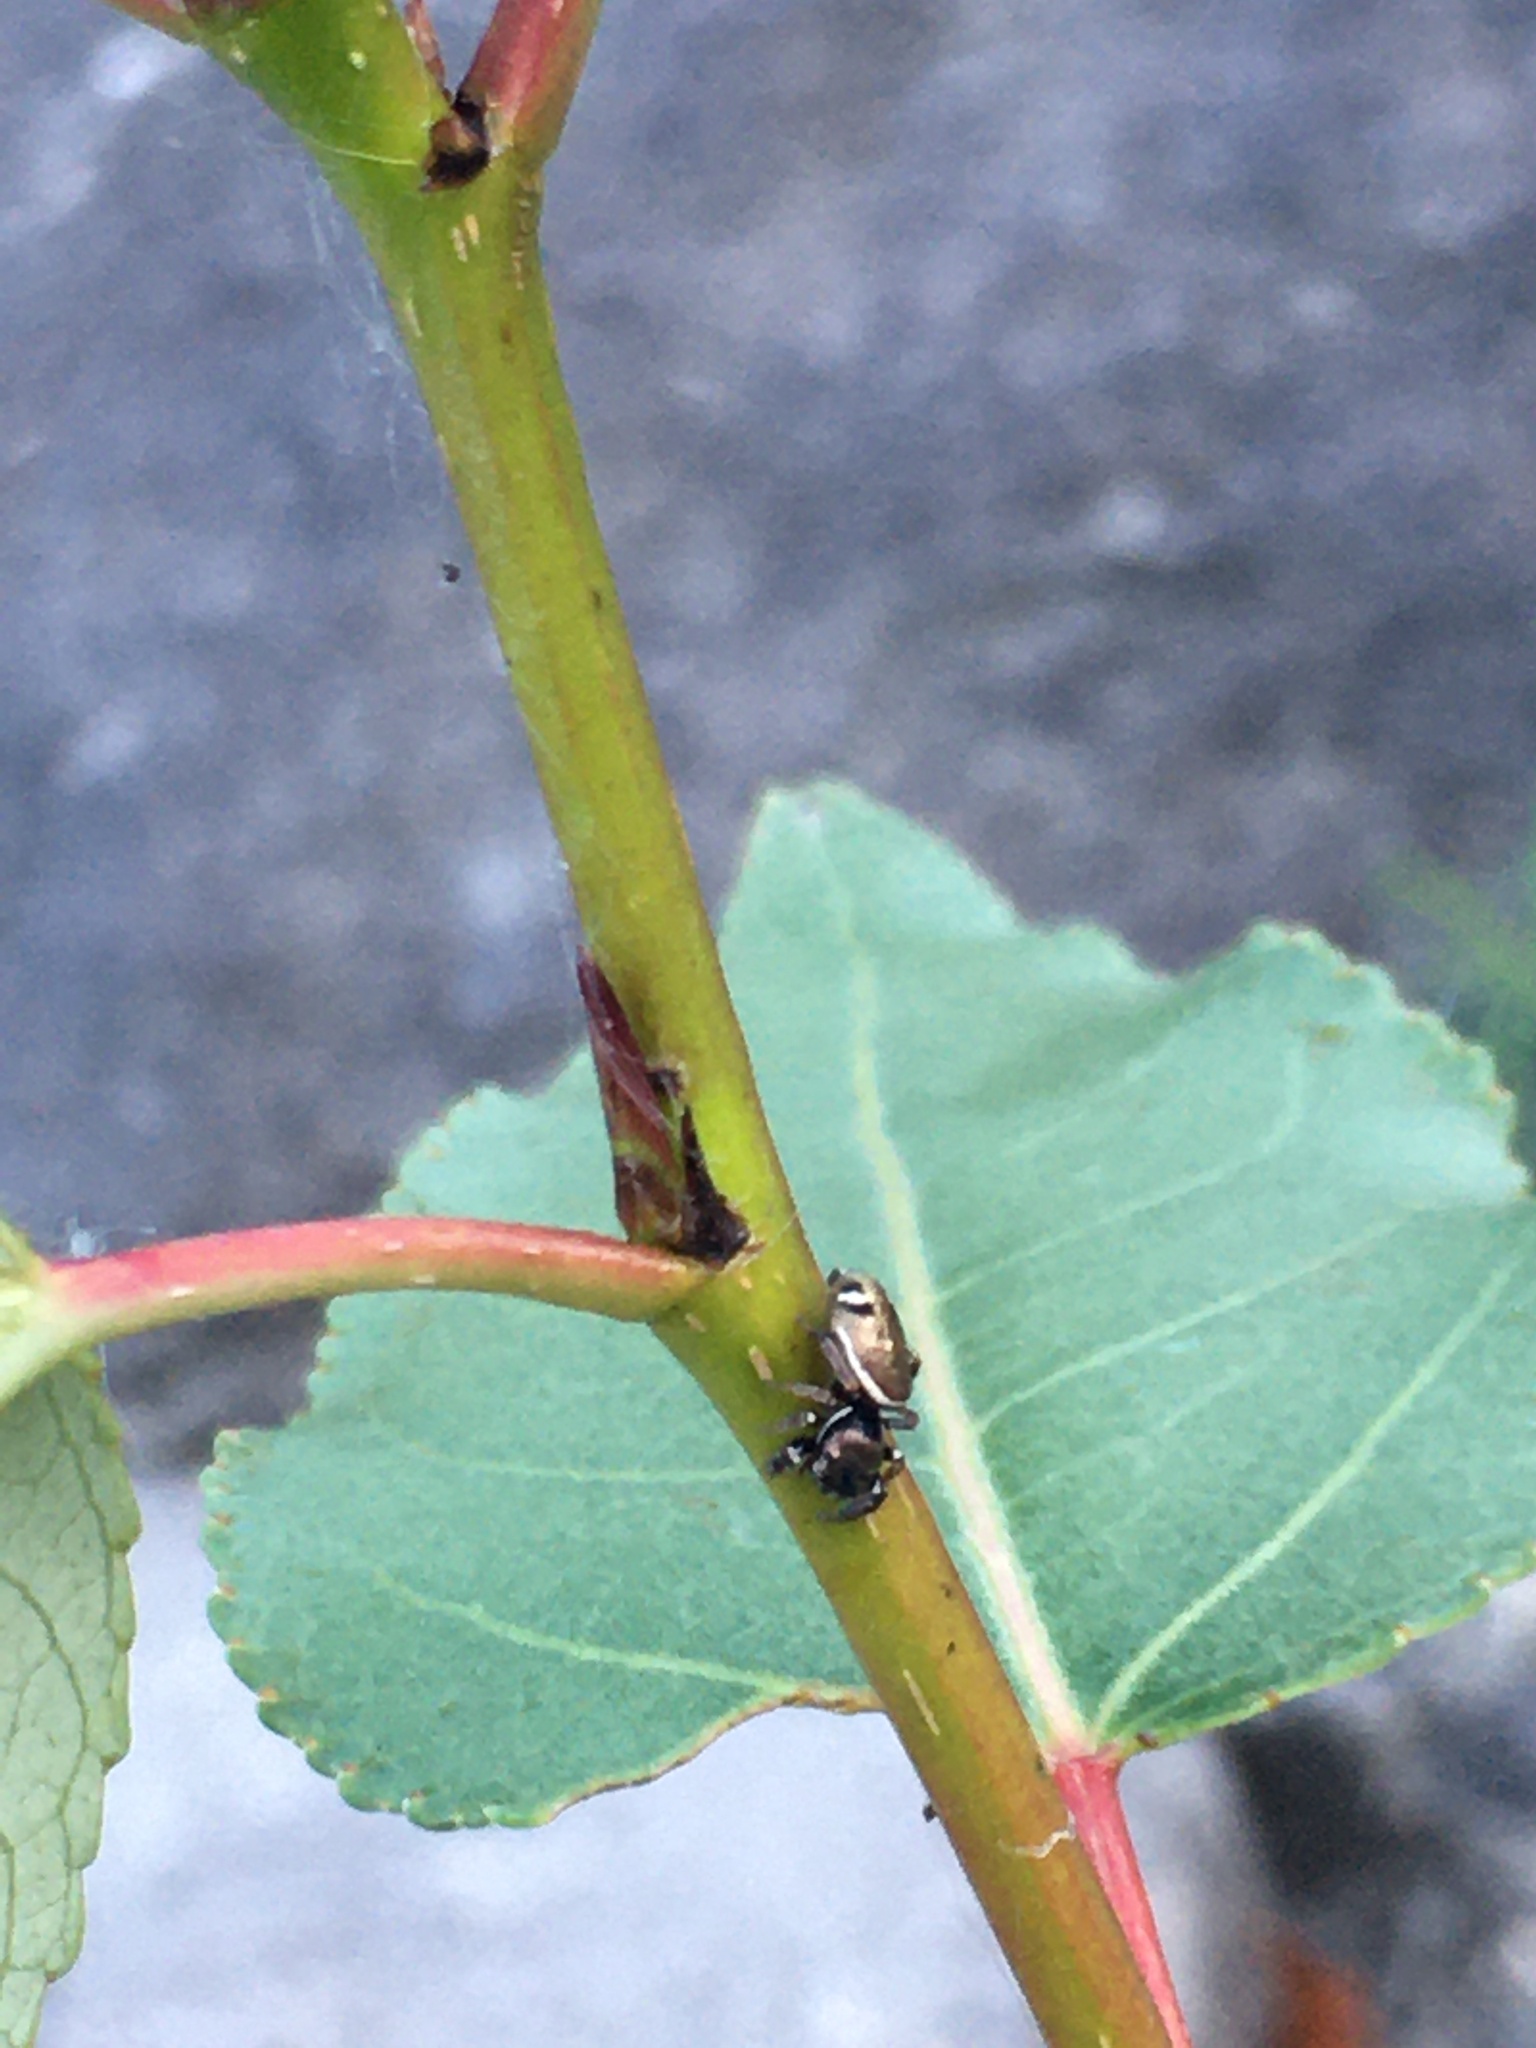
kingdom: Animalia
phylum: Arthropoda
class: Arachnida
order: Araneae
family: Salticidae
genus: Sassacus
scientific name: Sassacus vitis
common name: Jumping spiders
